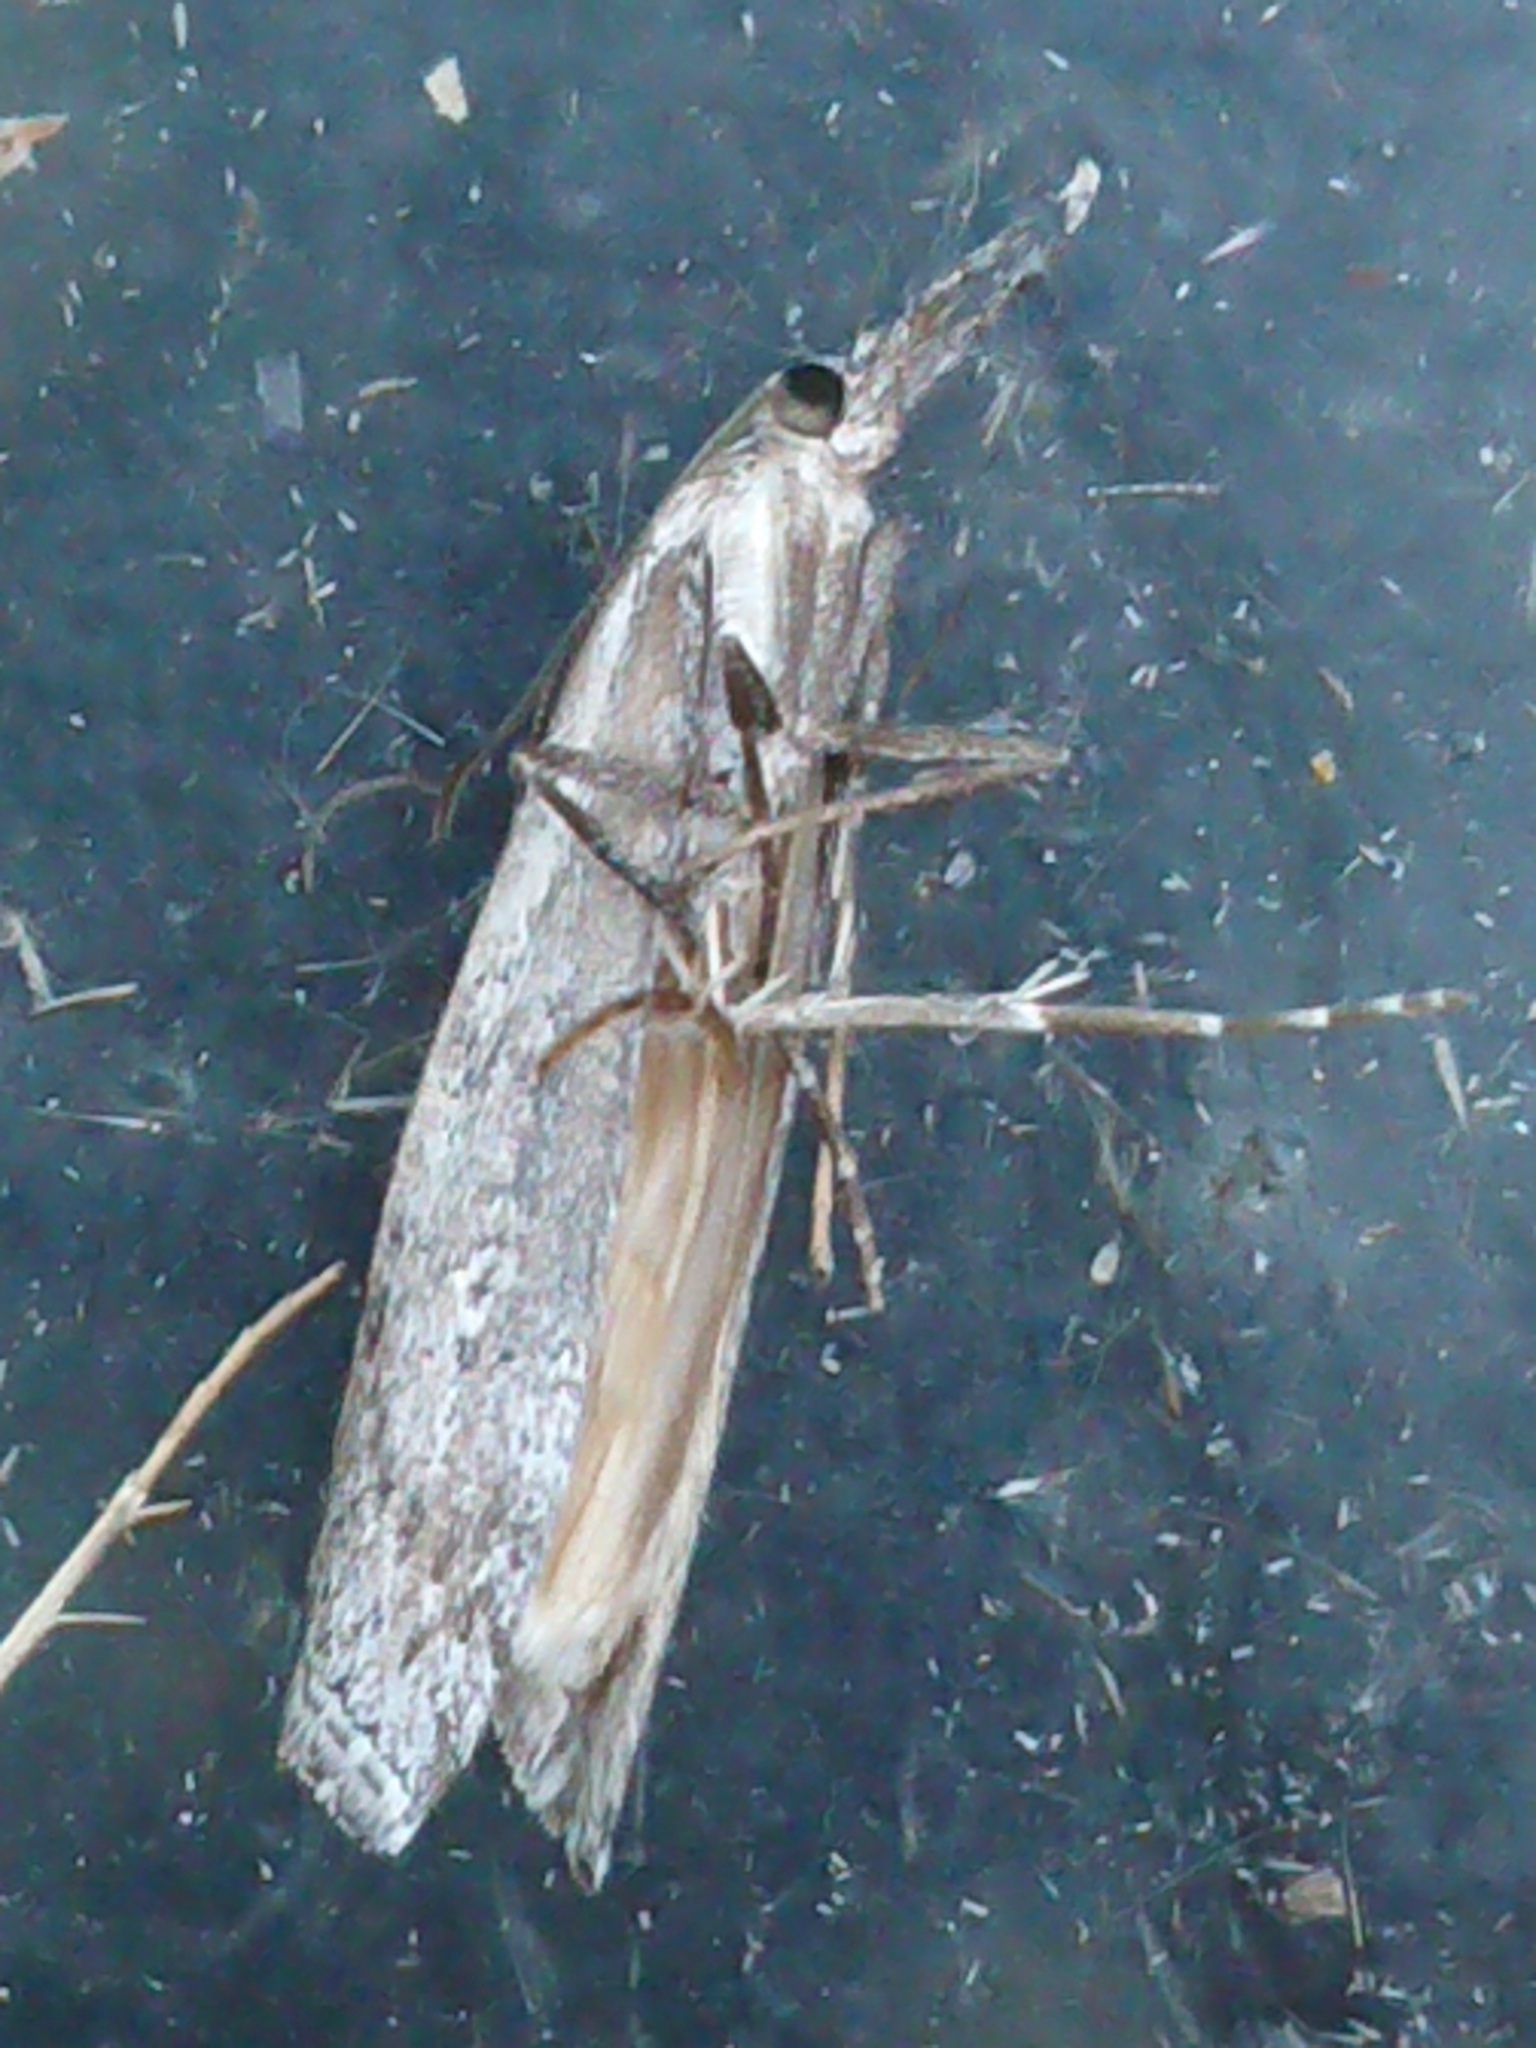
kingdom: Animalia
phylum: Arthropoda
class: Insecta
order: Lepidoptera
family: Crambidae
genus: Orocrambus
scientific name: Orocrambus cyclopicus
